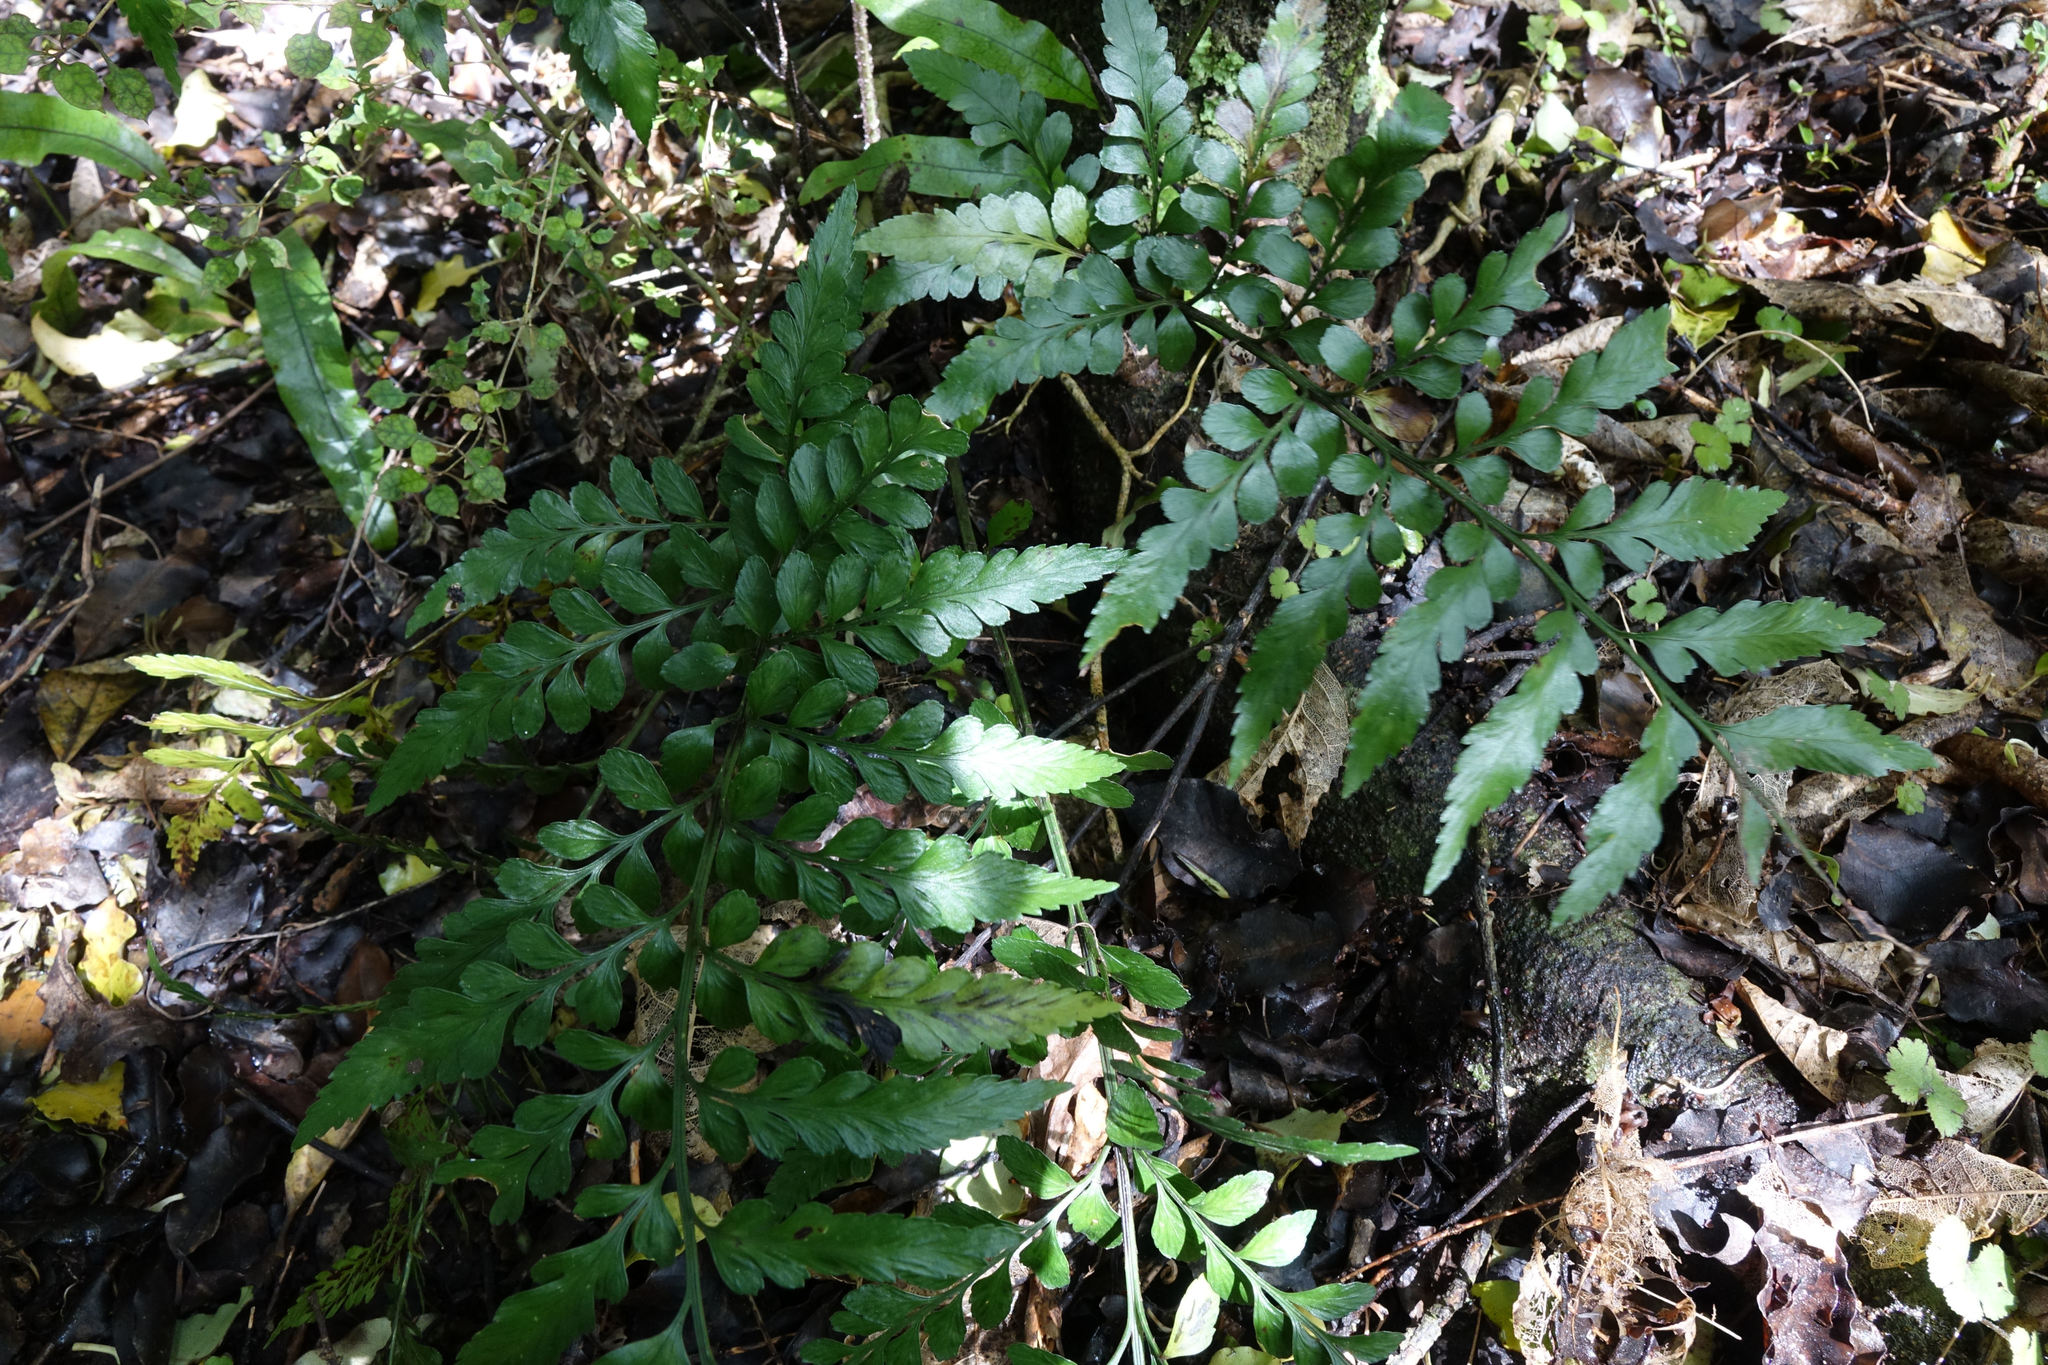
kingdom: Plantae
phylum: Tracheophyta
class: Polypodiopsida
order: Polypodiales
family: Aspleniaceae
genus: Asplenium
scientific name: Asplenium lyallii
